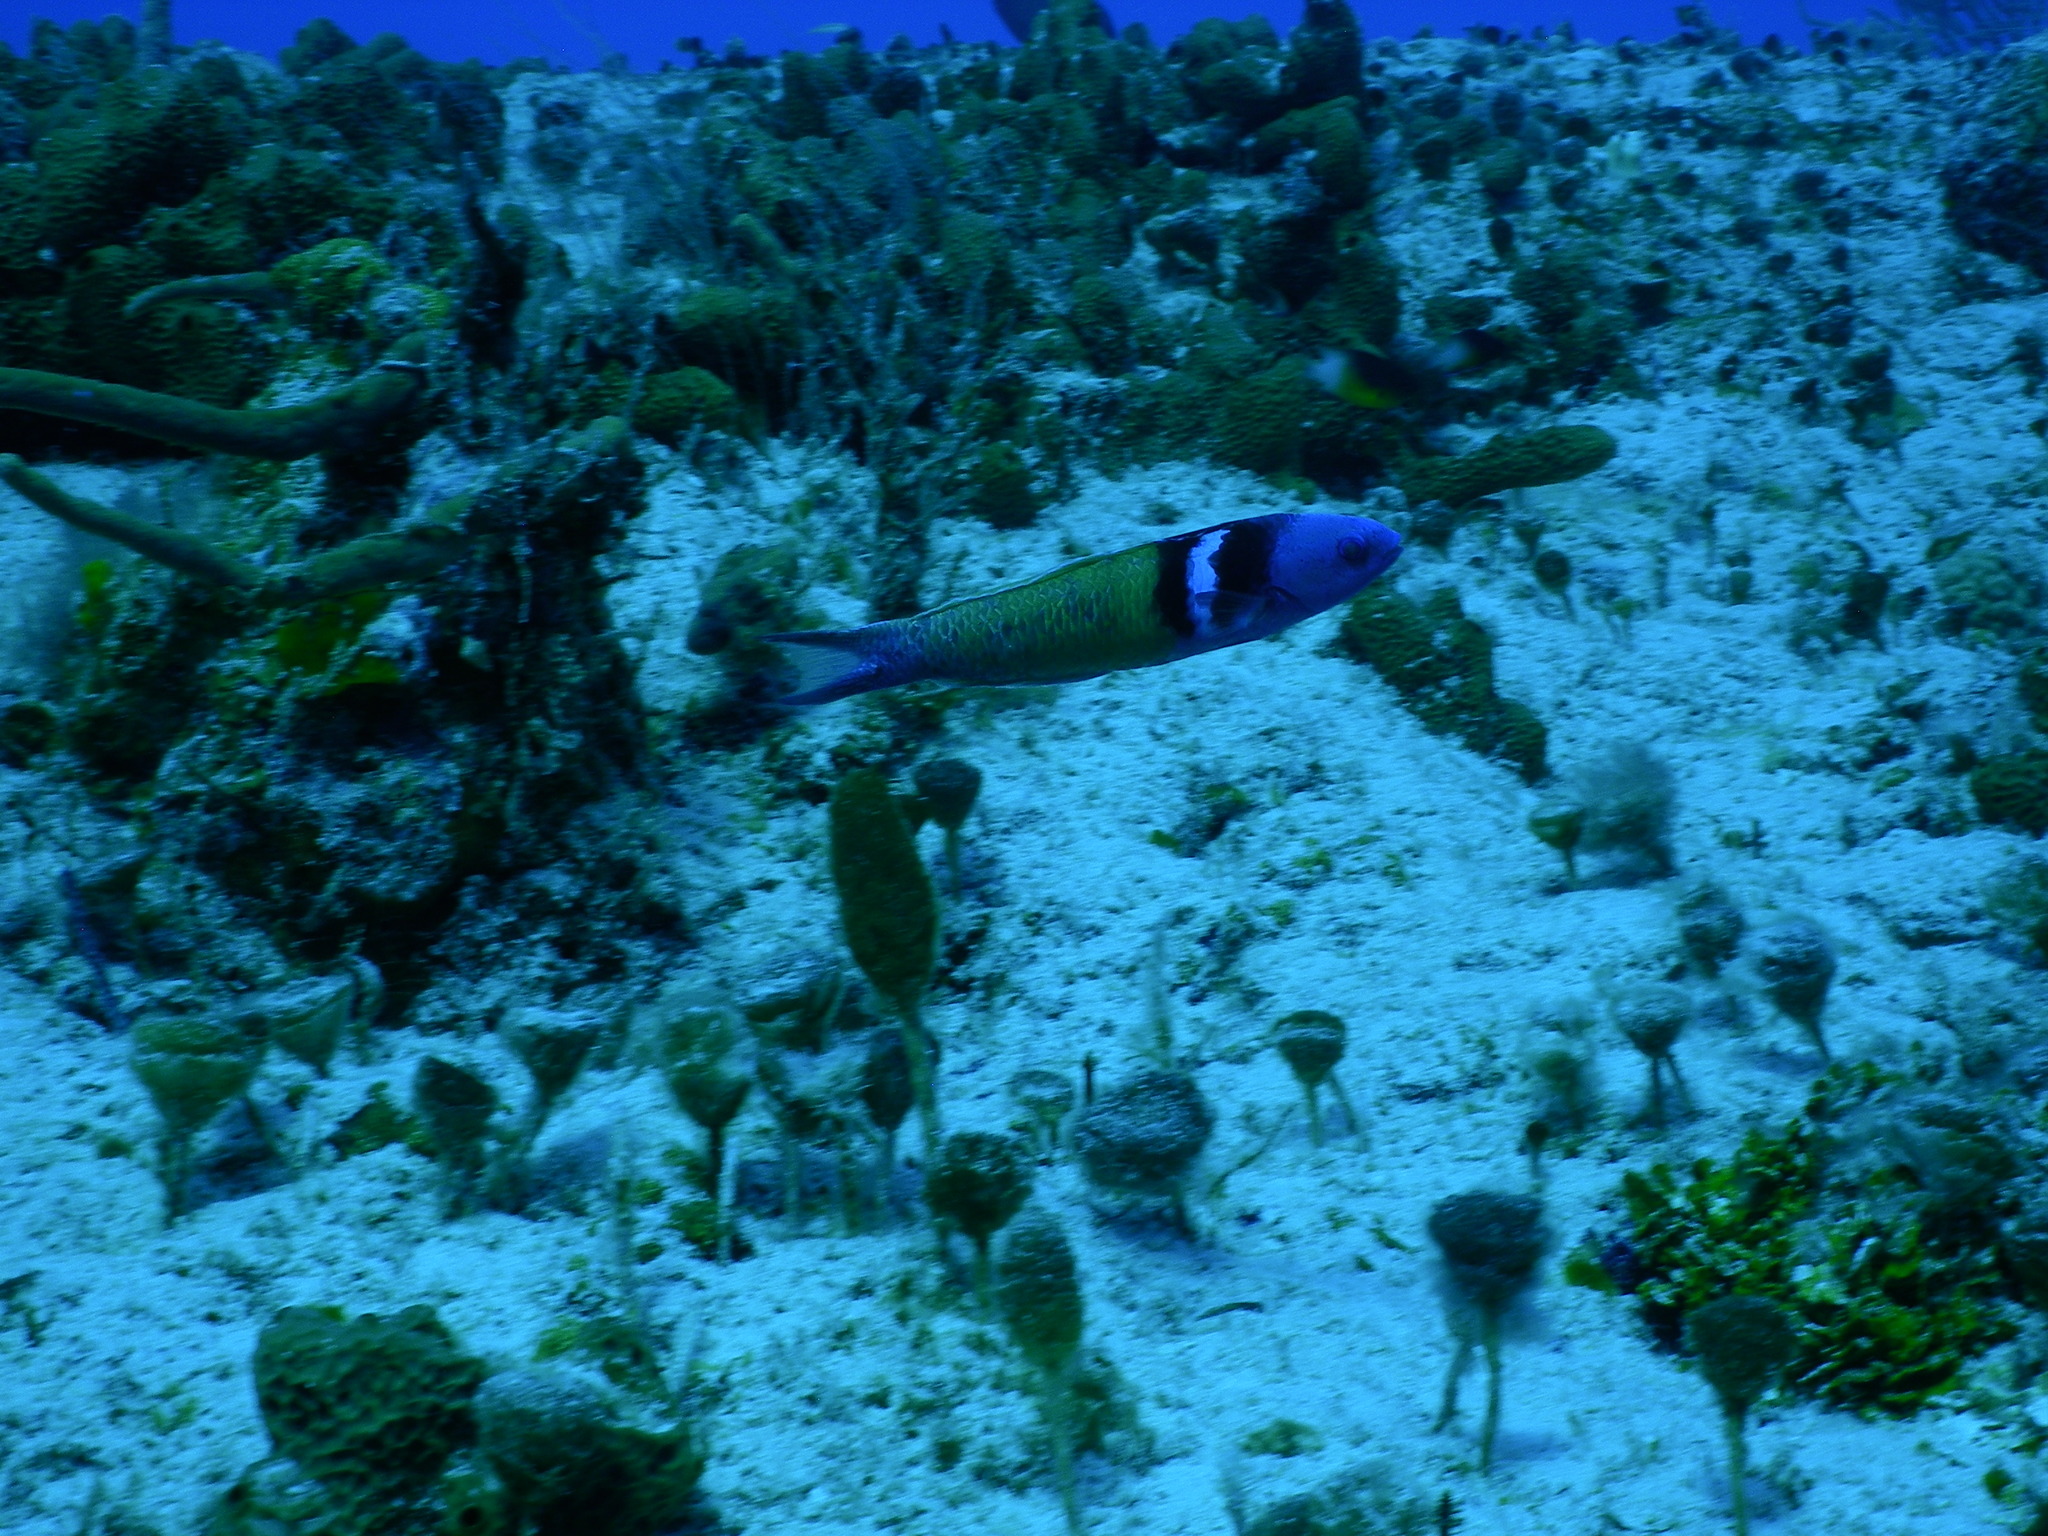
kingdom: Animalia
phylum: Chordata
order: Perciformes
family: Labridae
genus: Thalassoma
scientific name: Thalassoma bifasciatum
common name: Bluehead wrasse
